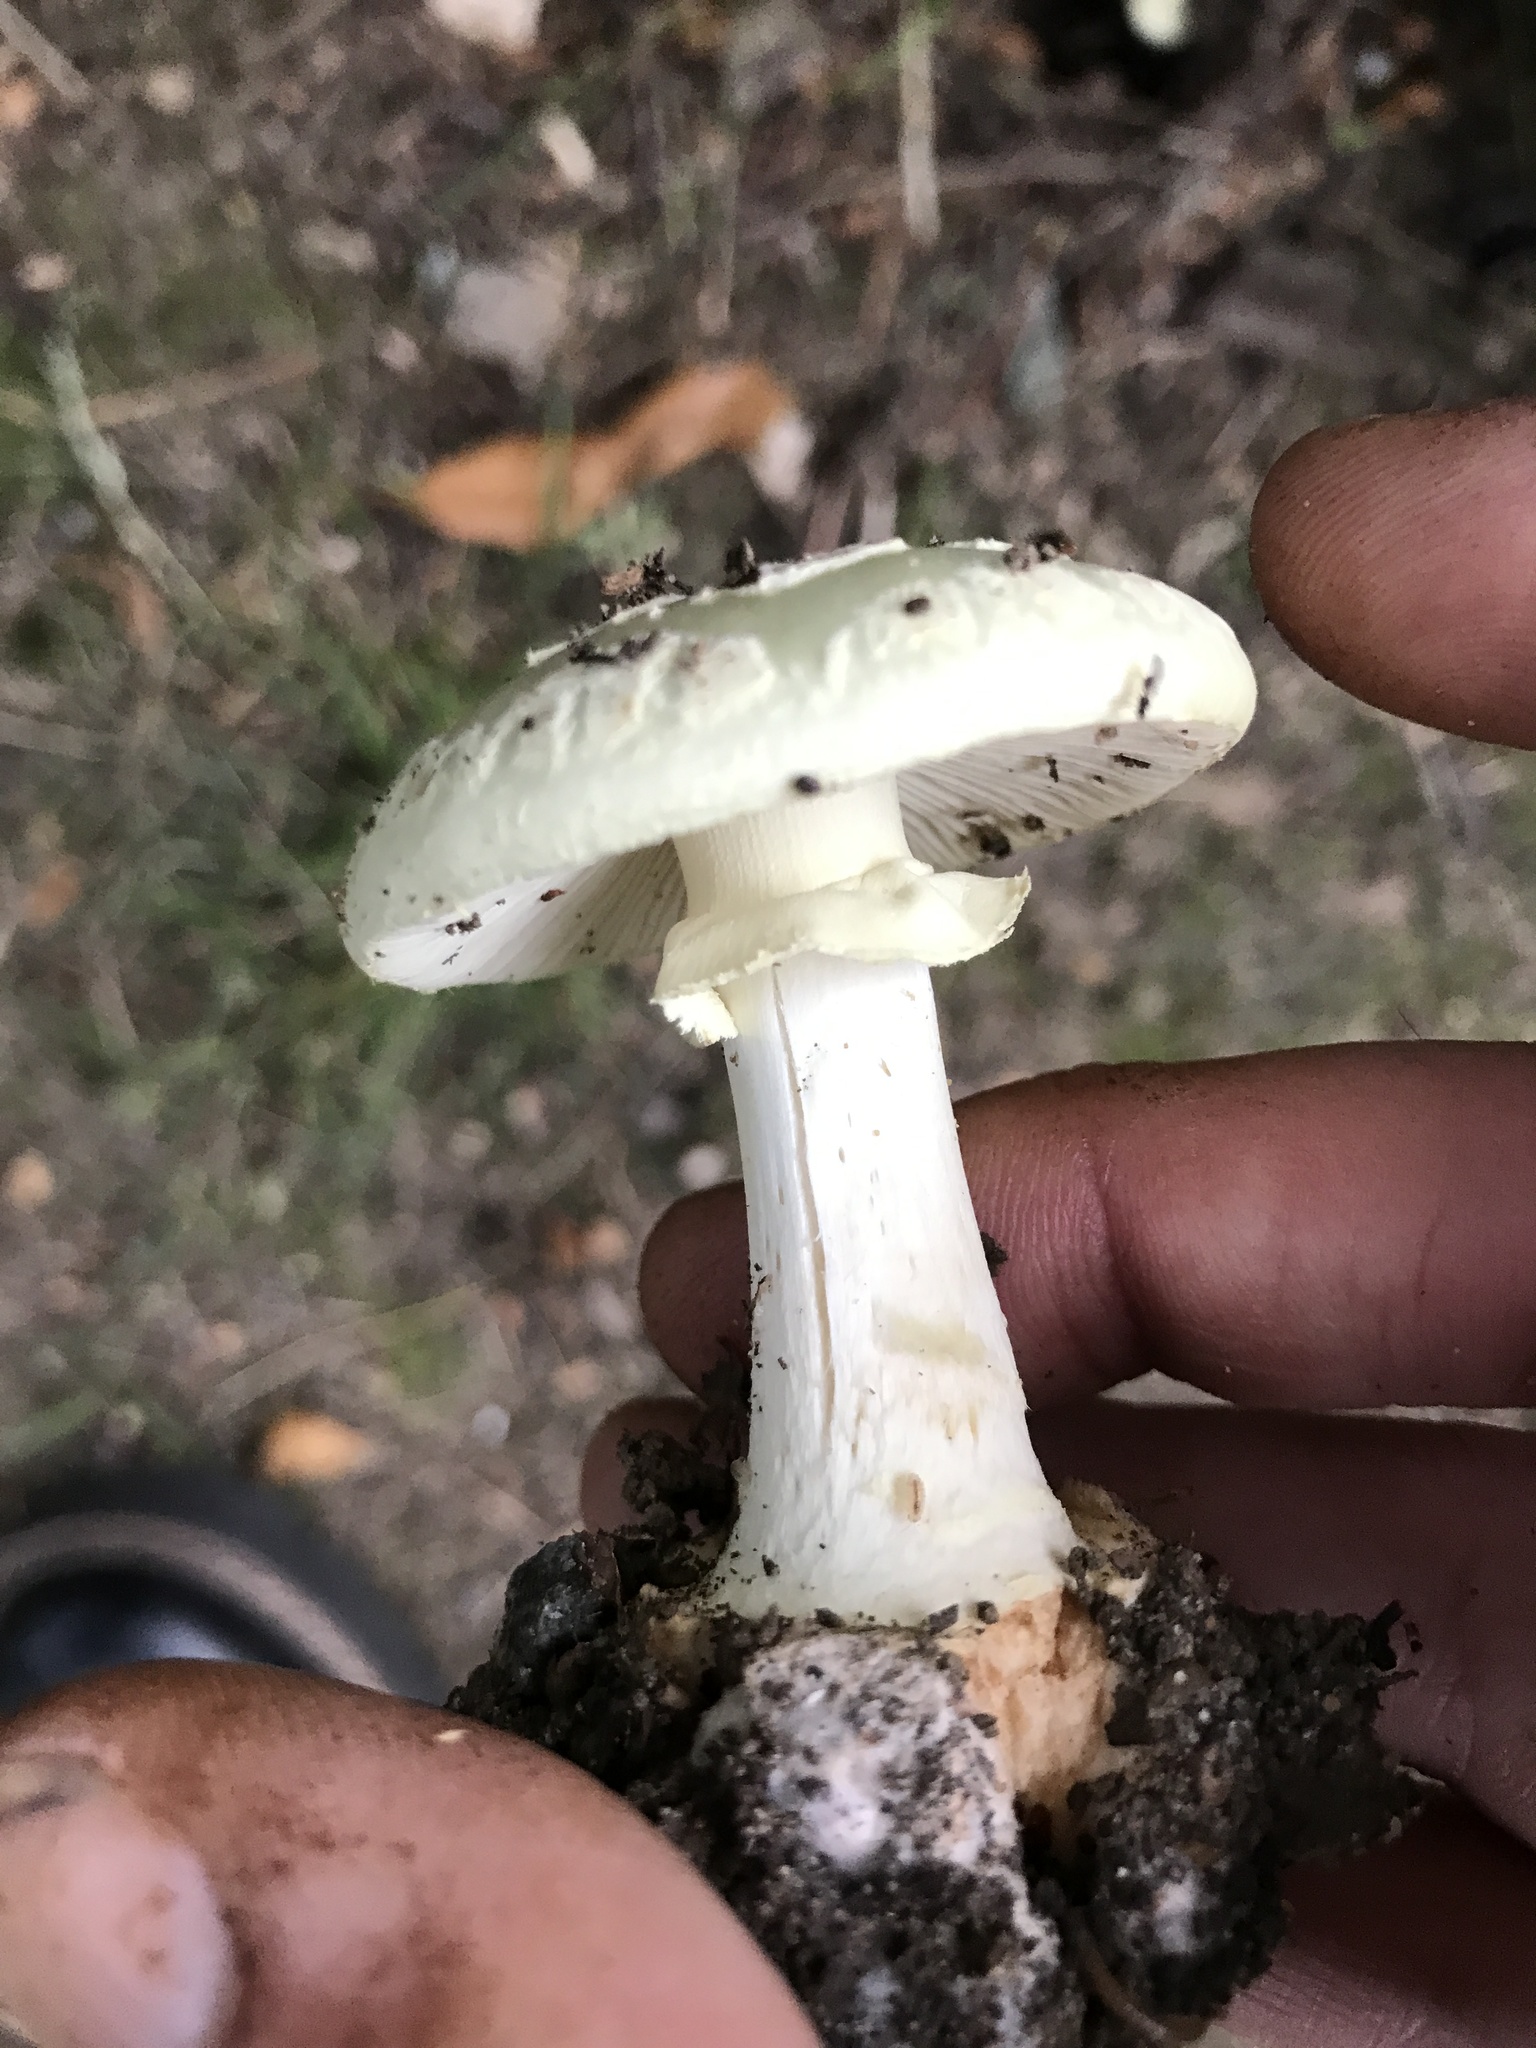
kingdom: Fungi
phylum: Basidiomycota
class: Agaricomycetes
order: Agaricales
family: Amanitaceae
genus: Amanita
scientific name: Amanita citrina
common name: False death-cap
